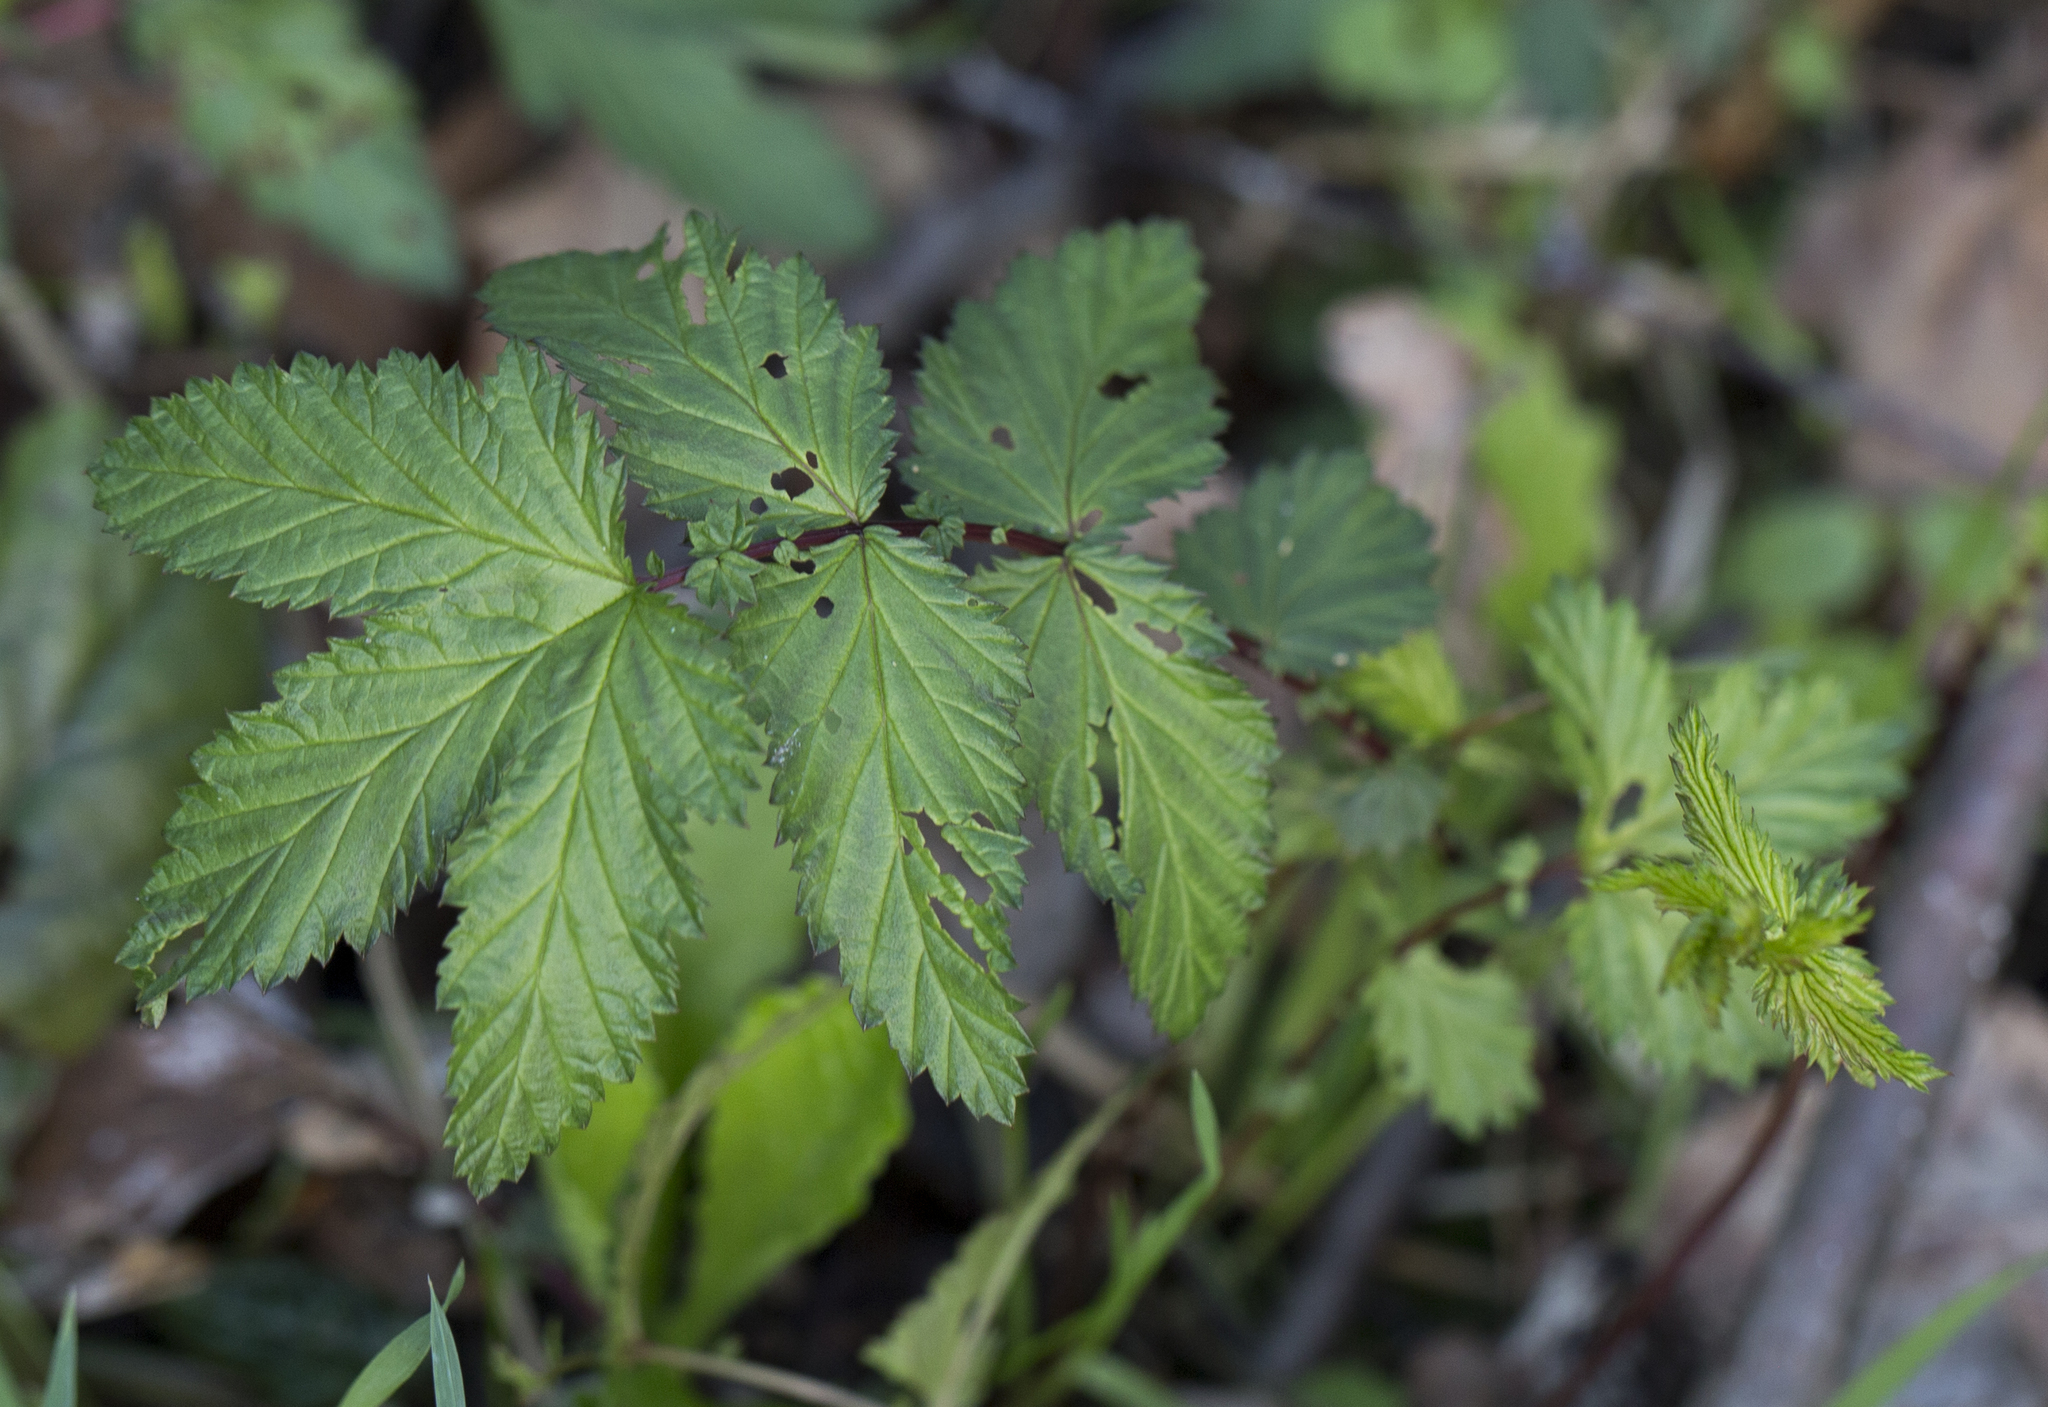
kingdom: Plantae
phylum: Tracheophyta
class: Magnoliopsida
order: Rosales
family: Rosaceae
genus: Filipendula
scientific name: Filipendula ulmaria
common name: Meadowsweet
